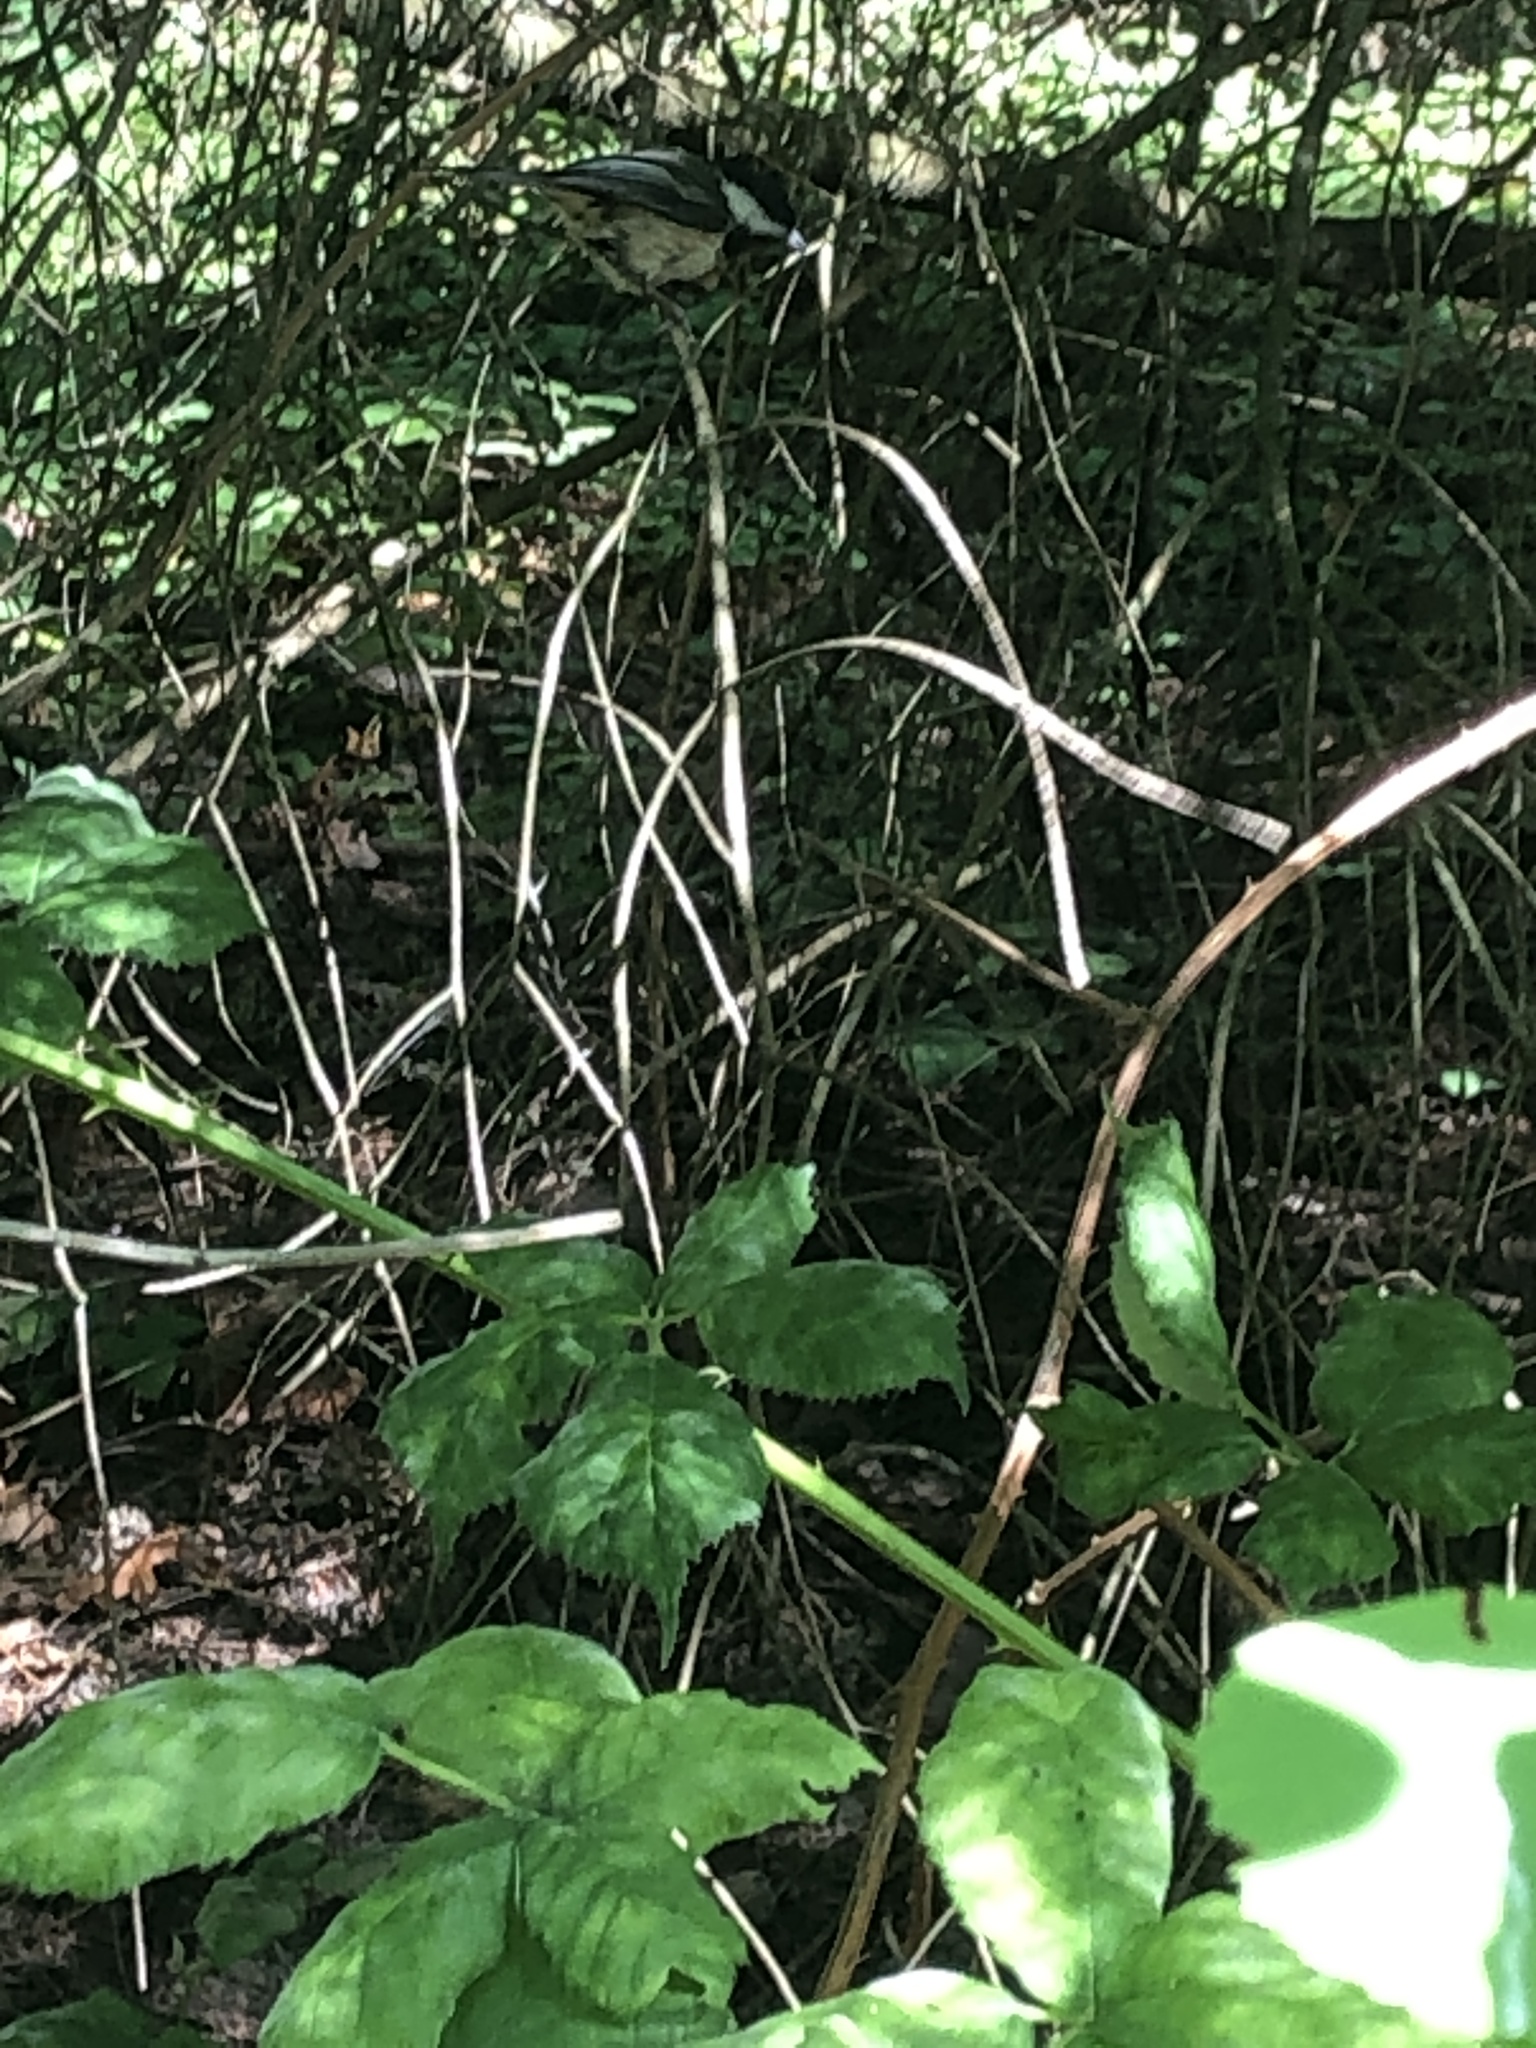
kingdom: Animalia
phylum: Chordata
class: Aves
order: Passeriformes
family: Paridae
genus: Poecile
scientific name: Poecile atricapillus
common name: Black-capped chickadee
